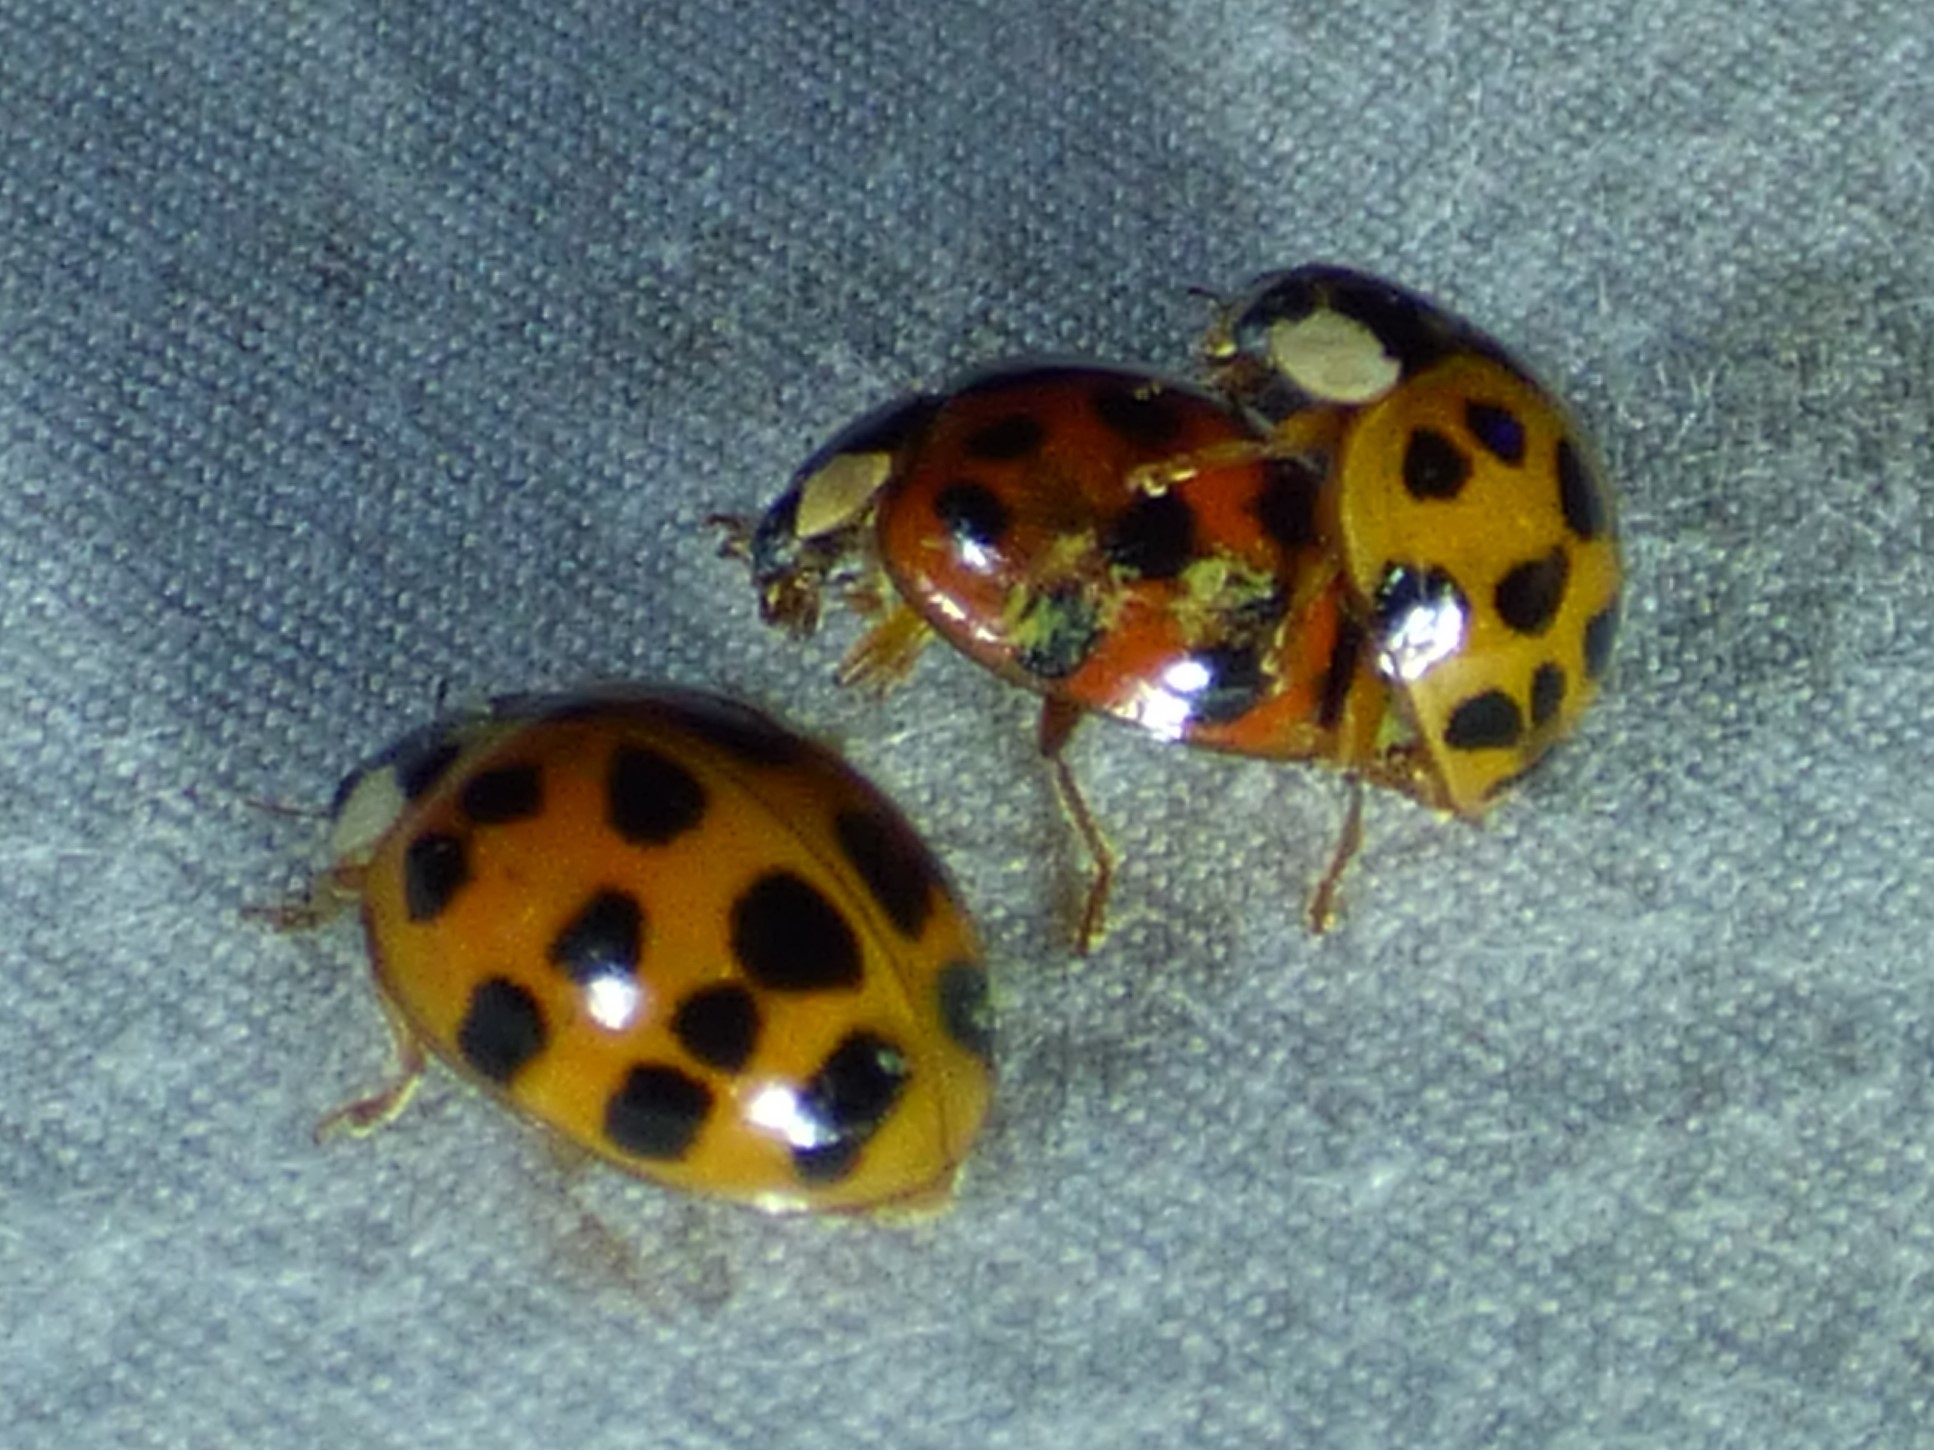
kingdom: Animalia
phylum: Arthropoda
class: Insecta
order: Coleoptera
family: Coccinellidae
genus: Harmonia
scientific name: Harmonia axyridis
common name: Harlequin ladybird
